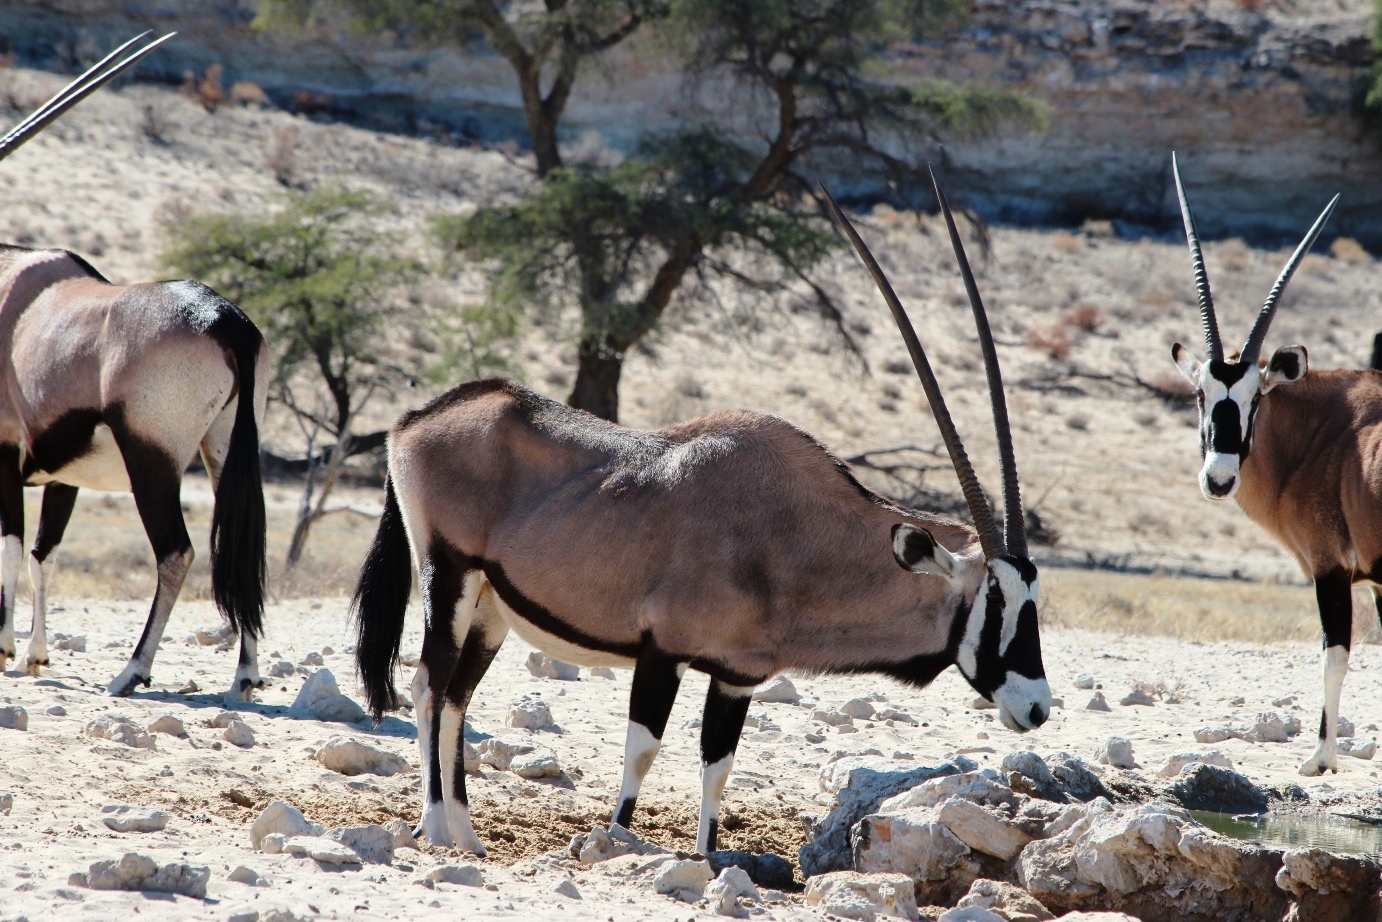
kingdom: Animalia
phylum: Chordata
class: Mammalia
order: Artiodactyla
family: Bovidae
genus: Oryx
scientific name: Oryx gazella
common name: Gemsbok
